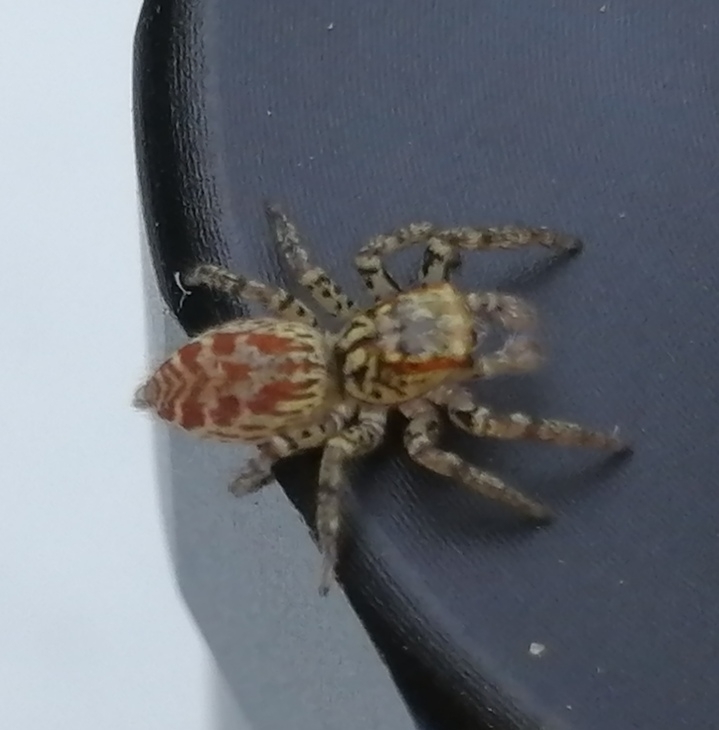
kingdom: Animalia
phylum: Arthropoda
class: Arachnida
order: Araneae
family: Salticidae
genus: Maevia
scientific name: Maevia inclemens
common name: Dimorphic jumper
